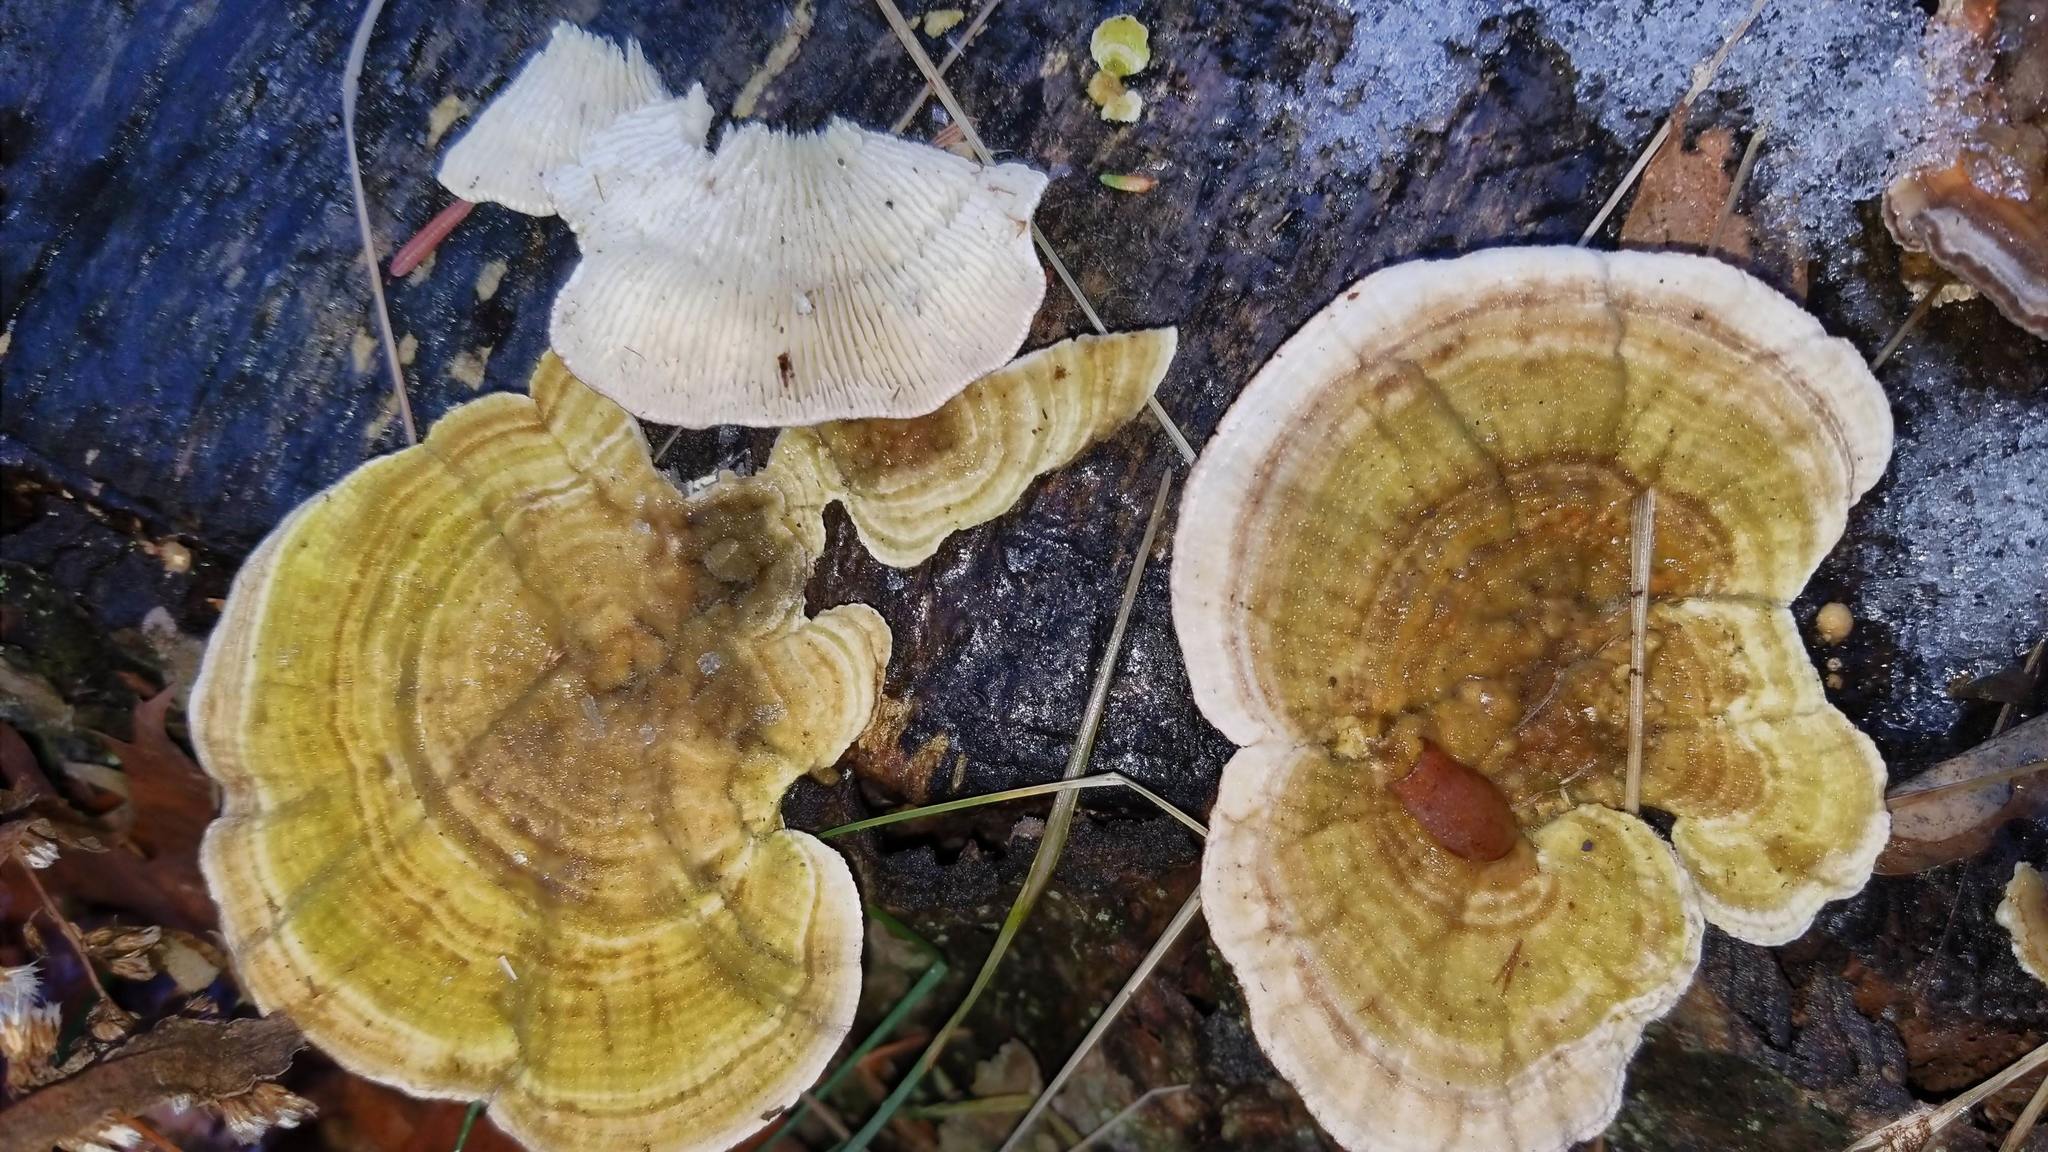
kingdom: Fungi
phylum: Basidiomycota
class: Agaricomycetes
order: Polyporales
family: Polyporaceae
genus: Lenzites
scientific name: Lenzites betulinus
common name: Birch mazegill
